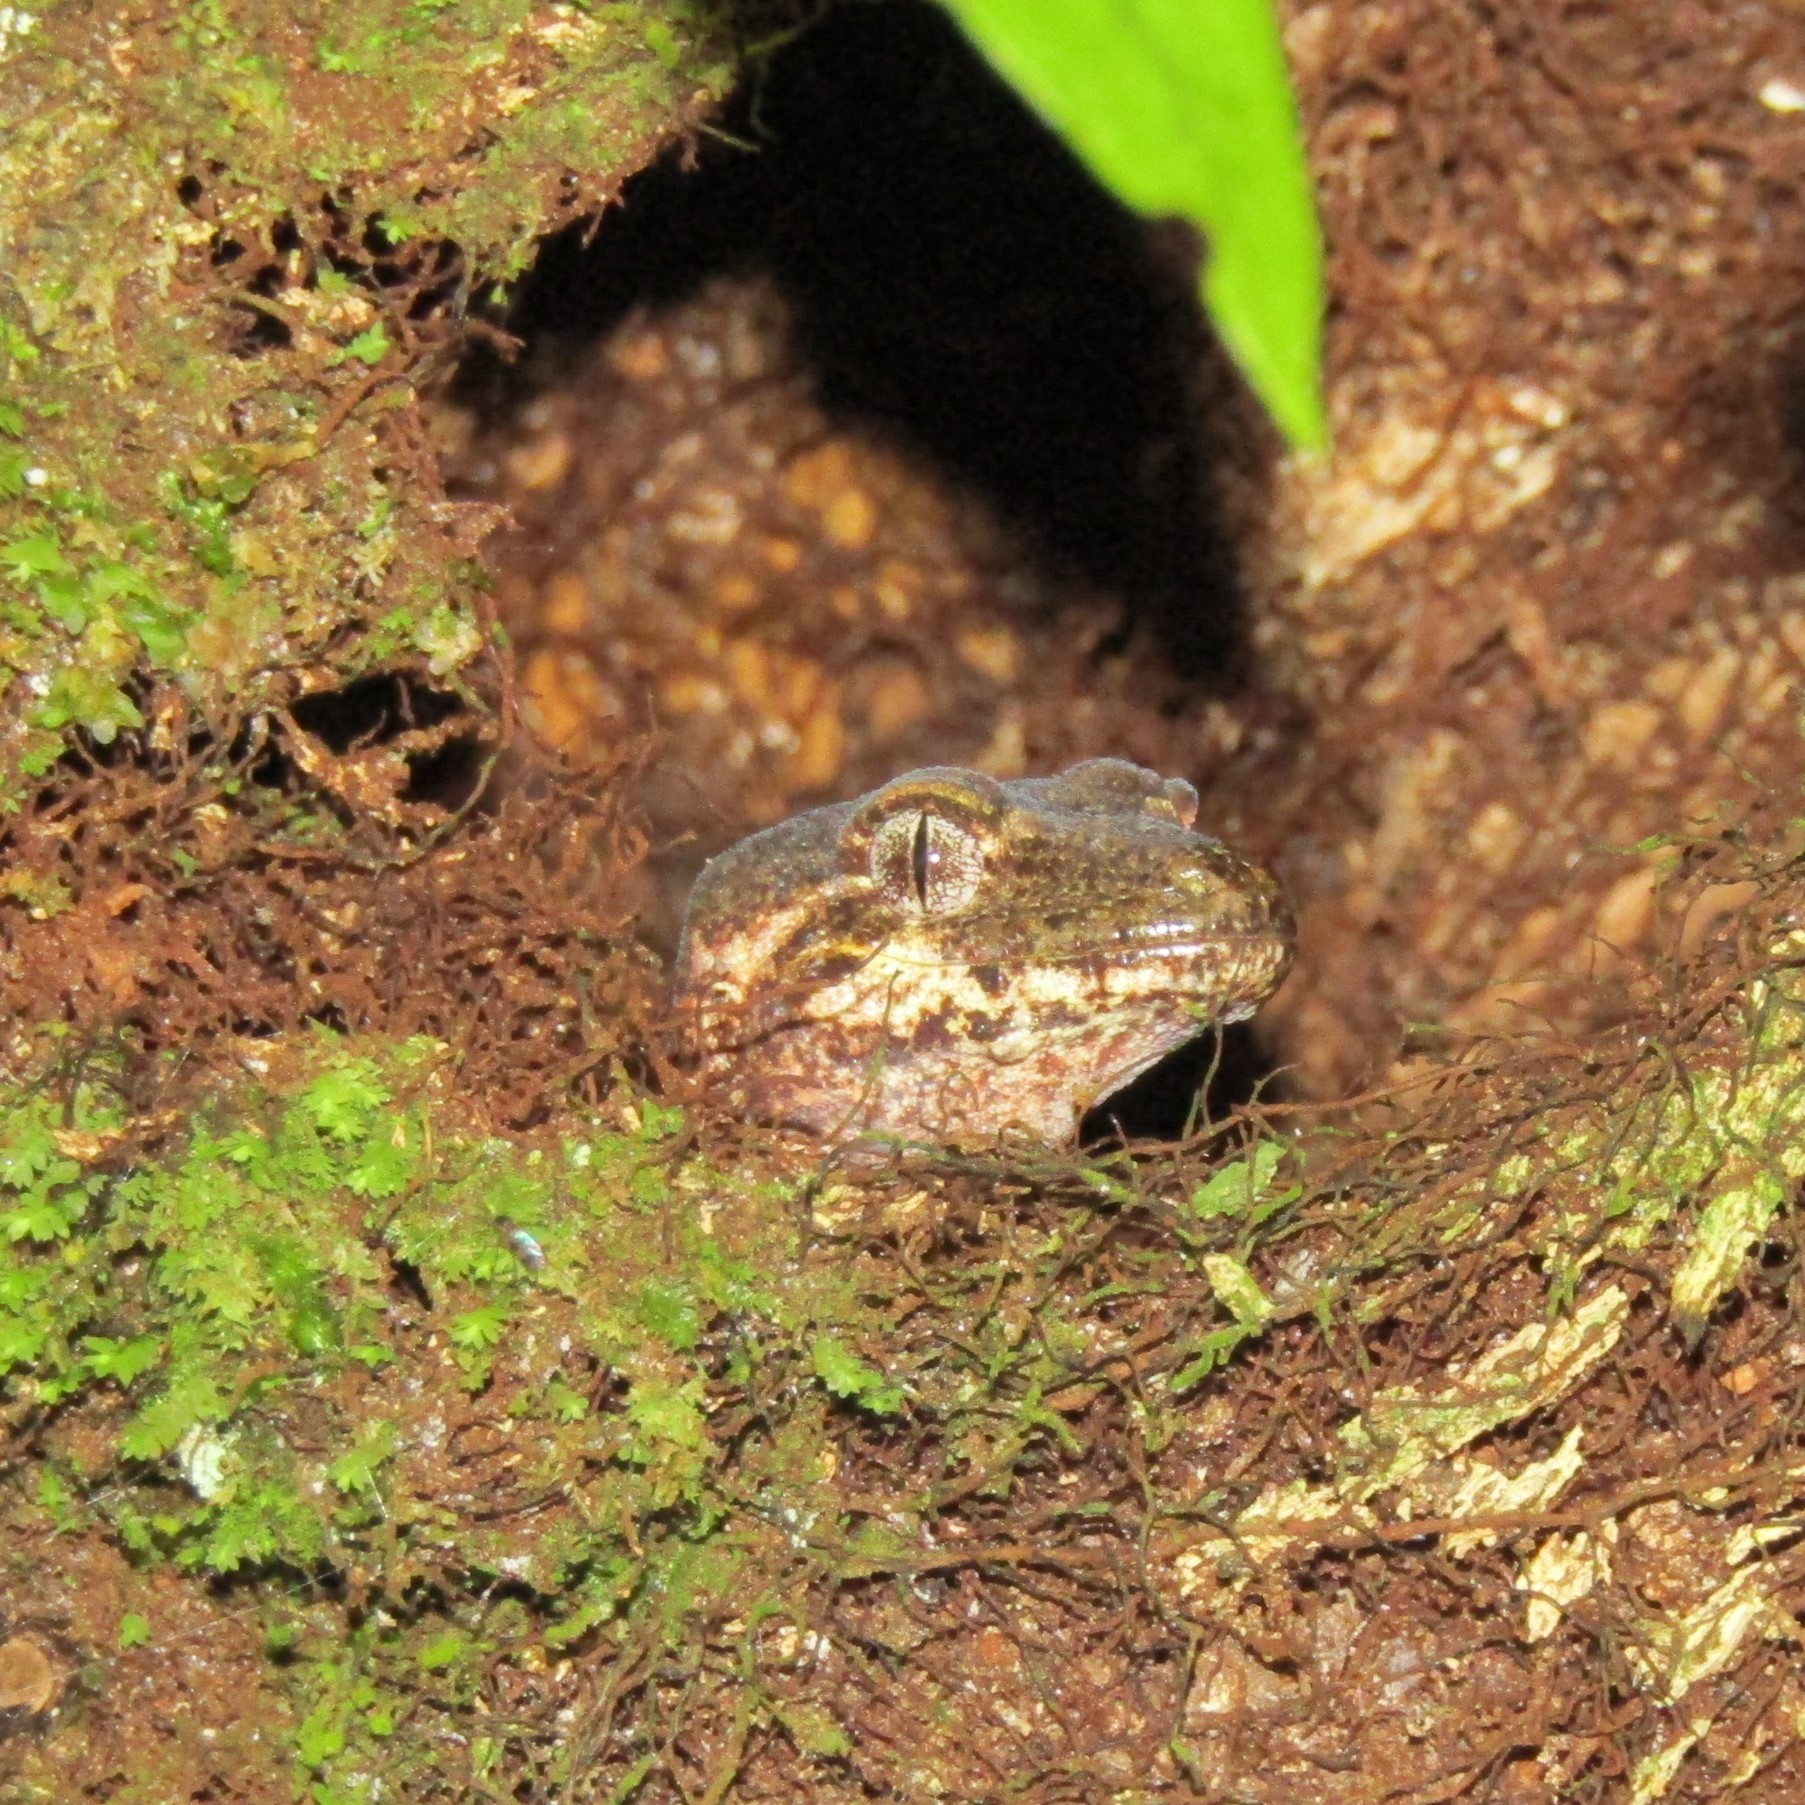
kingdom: Animalia
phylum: Chordata
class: Squamata
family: Diplodactylidae
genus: Mokopirirakau
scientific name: Mokopirirakau
